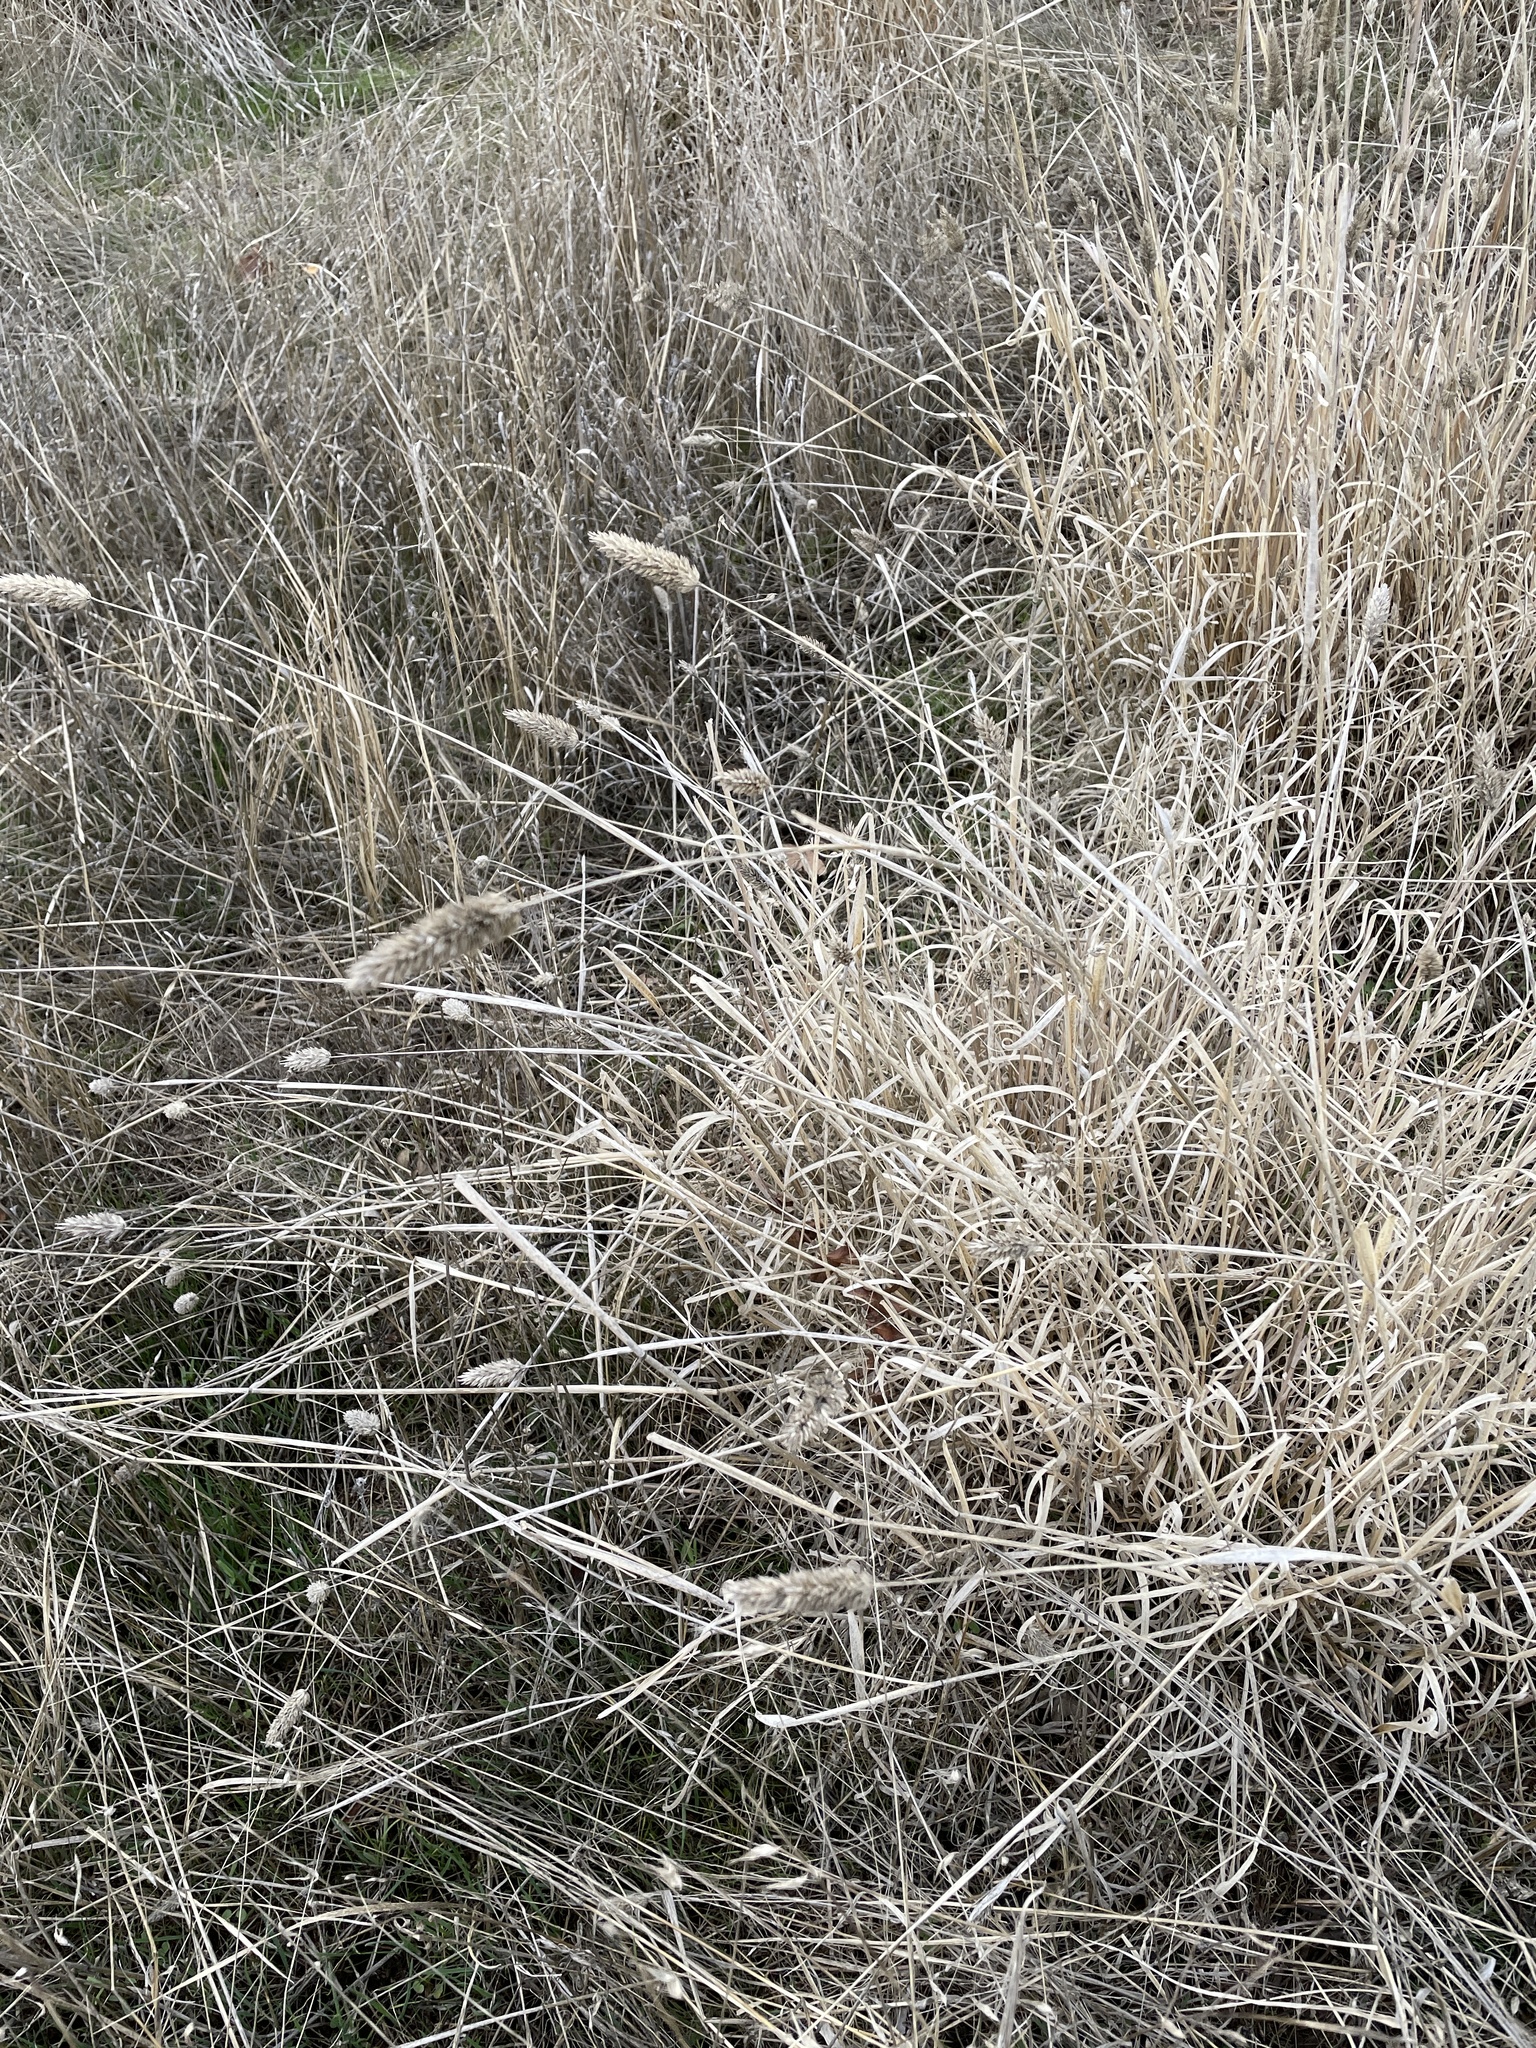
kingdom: Plantae
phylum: Tracheophyta
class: Liliopsida
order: Poales
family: Poaceae
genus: Phalaris
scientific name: Phalaris aquatica
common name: Bulbous canary-grass
